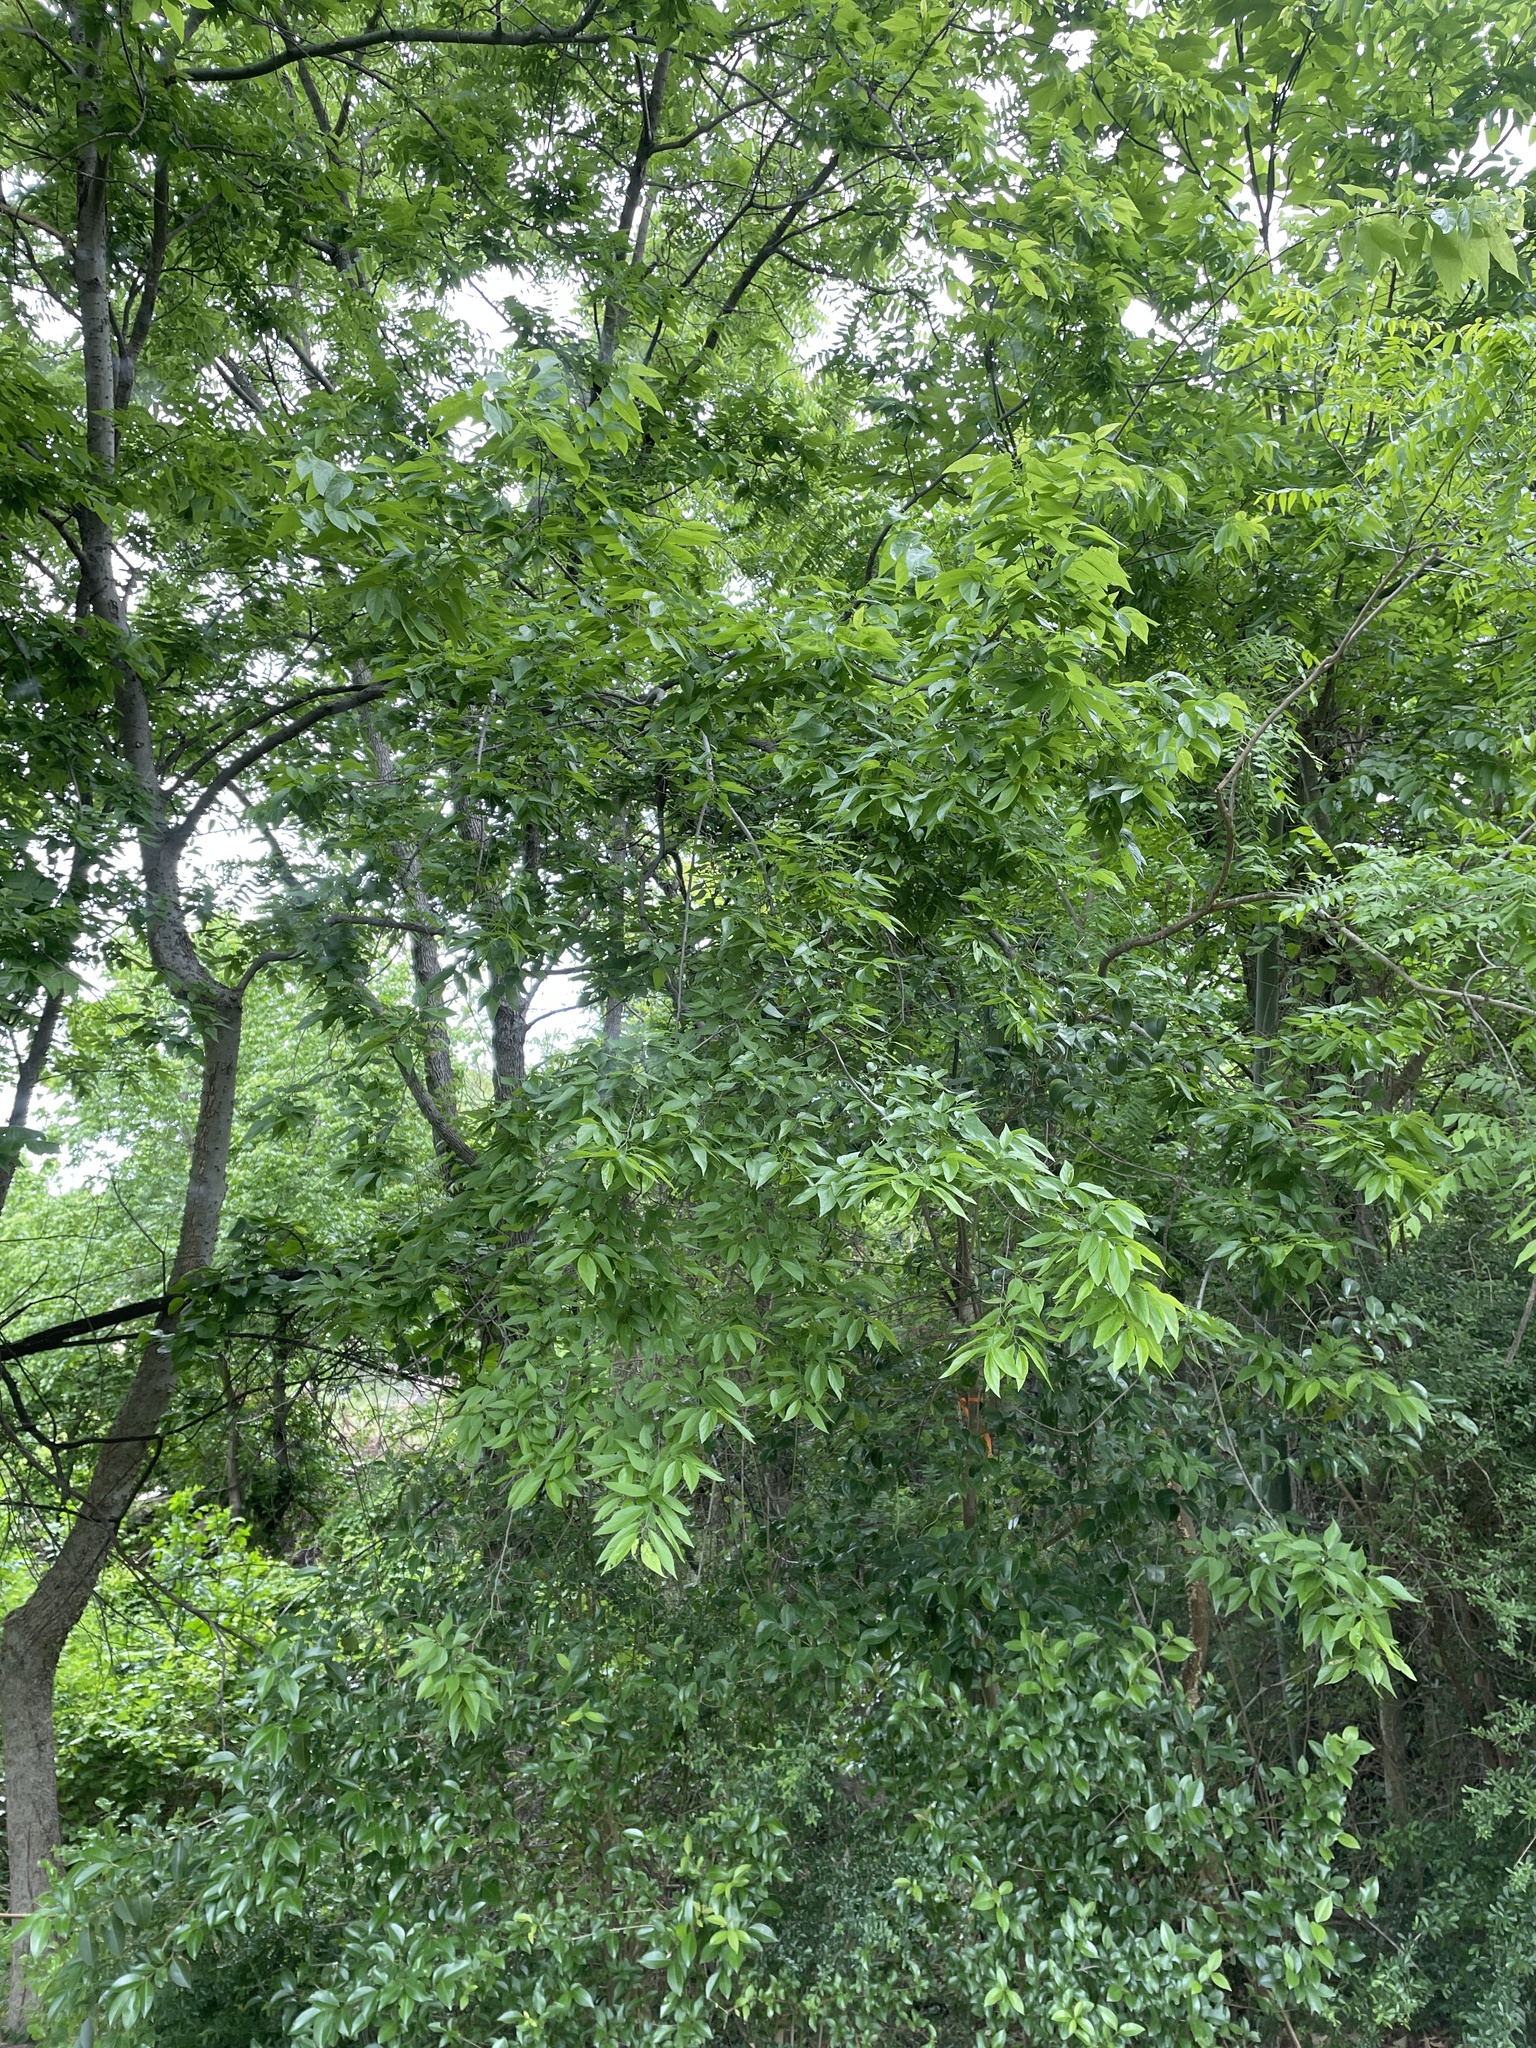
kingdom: Plantae
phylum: Tracheophyta
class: Magnoliopsida
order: Rosales
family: Cannabaceae
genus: Celtis
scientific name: Celtis laevigata
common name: Sugarberry
